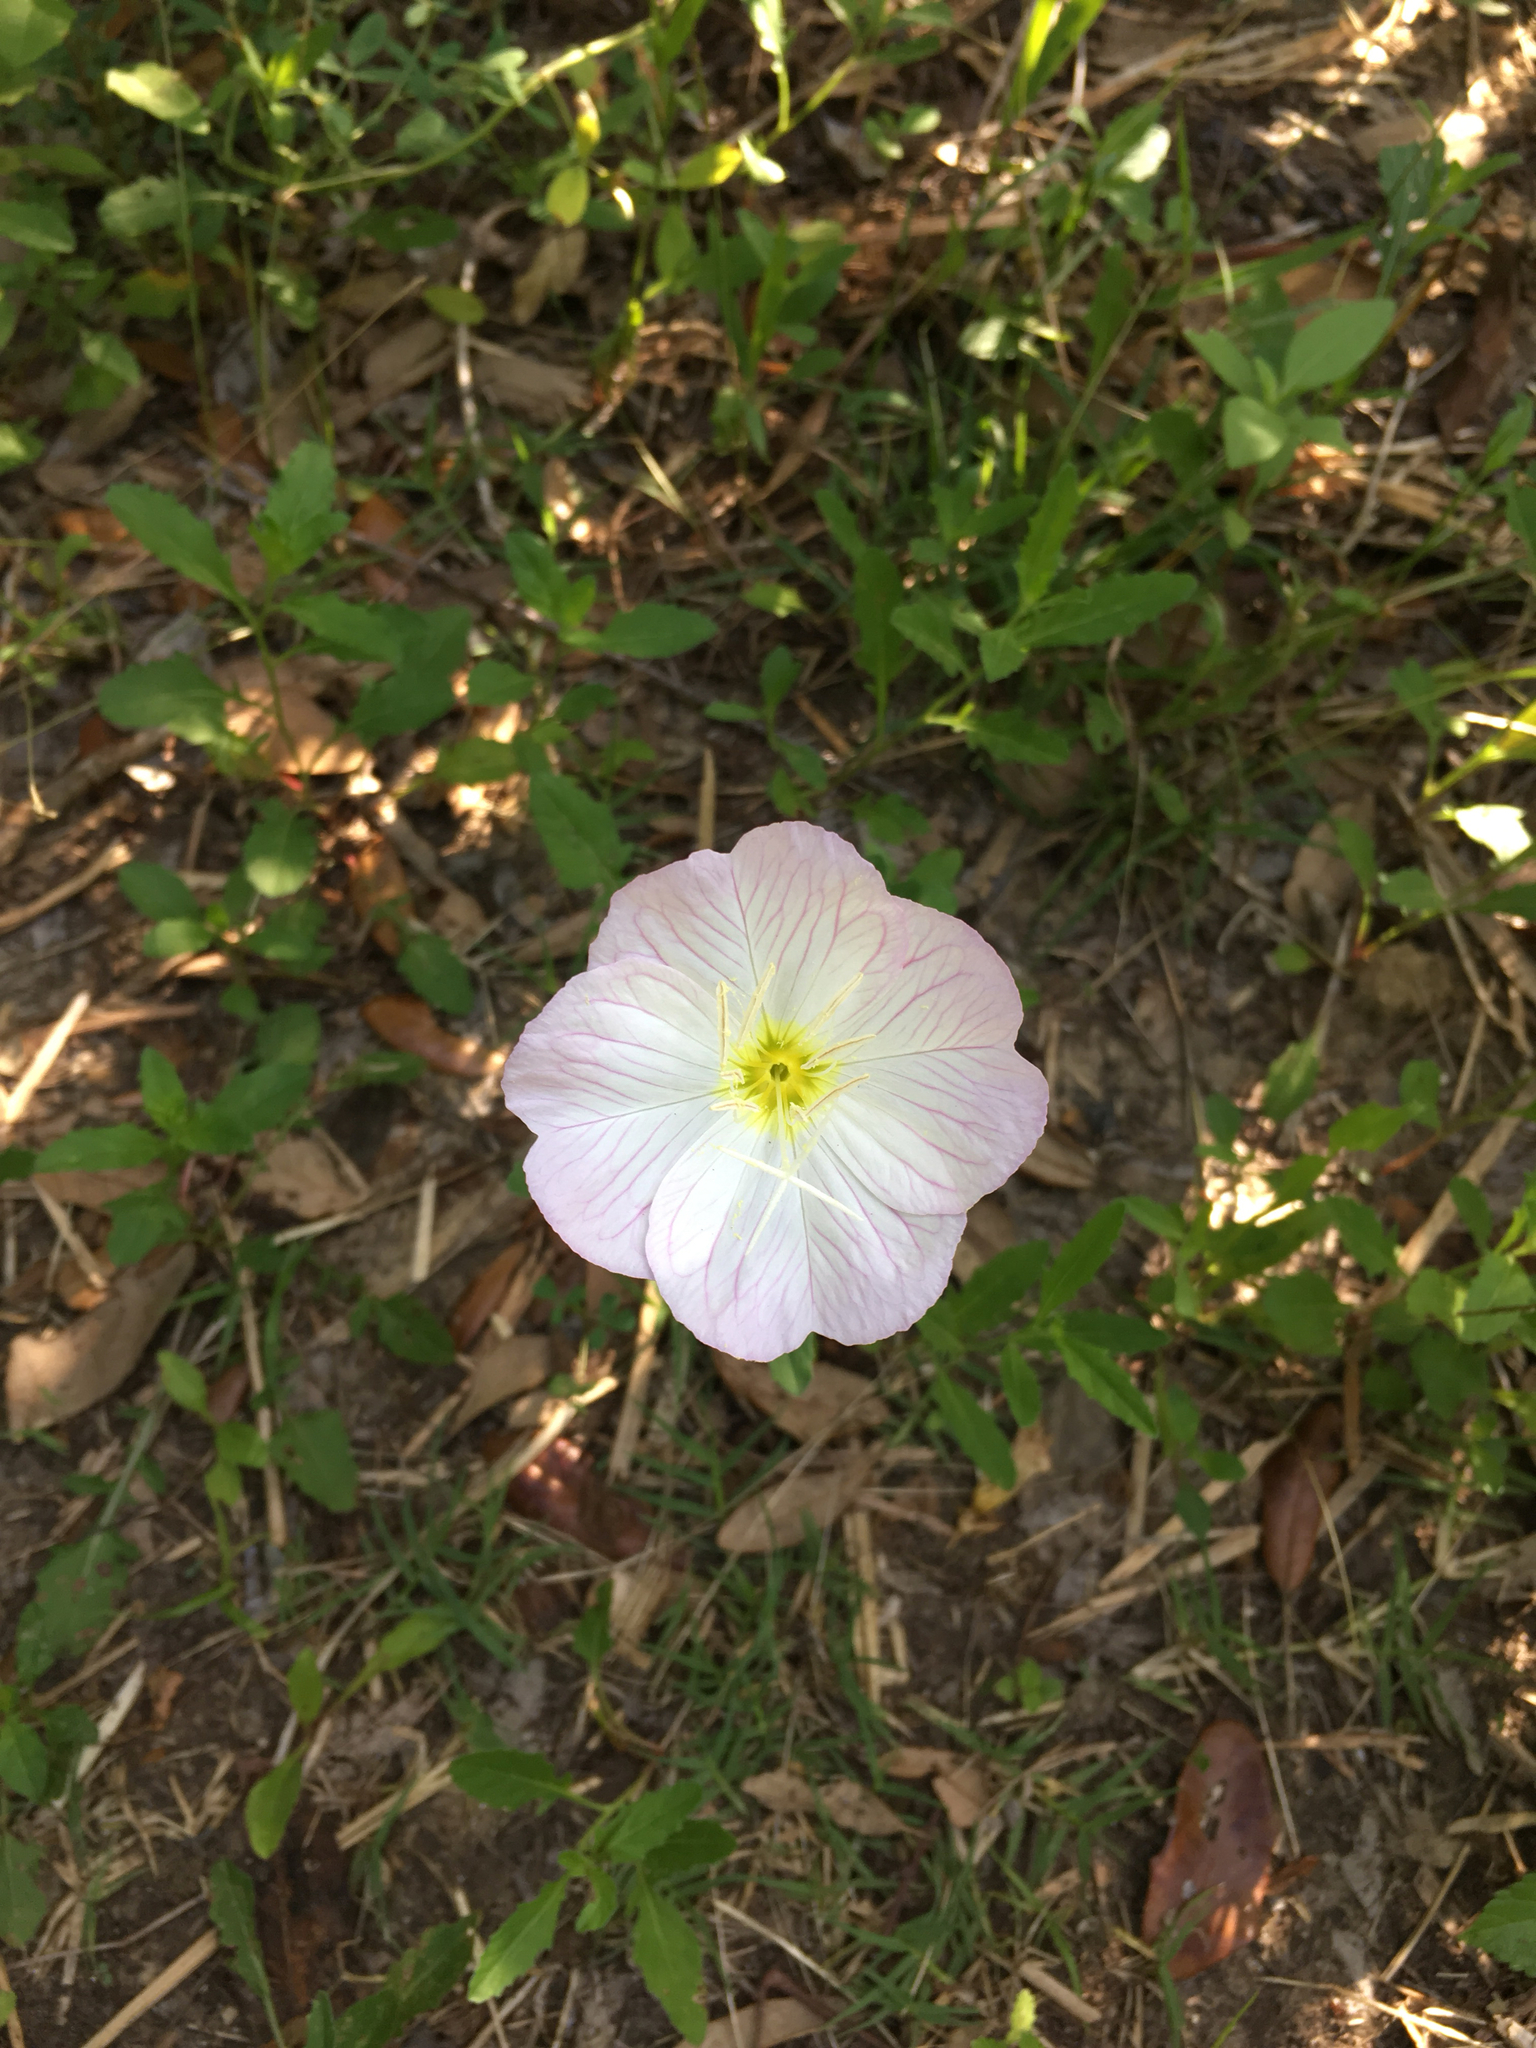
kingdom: Plantae
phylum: Tracheophyta
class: Magnoliopsida
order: Myrtales
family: Onagraceae
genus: Oenothera
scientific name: Oenothera speciosa
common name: White evening-primrose
